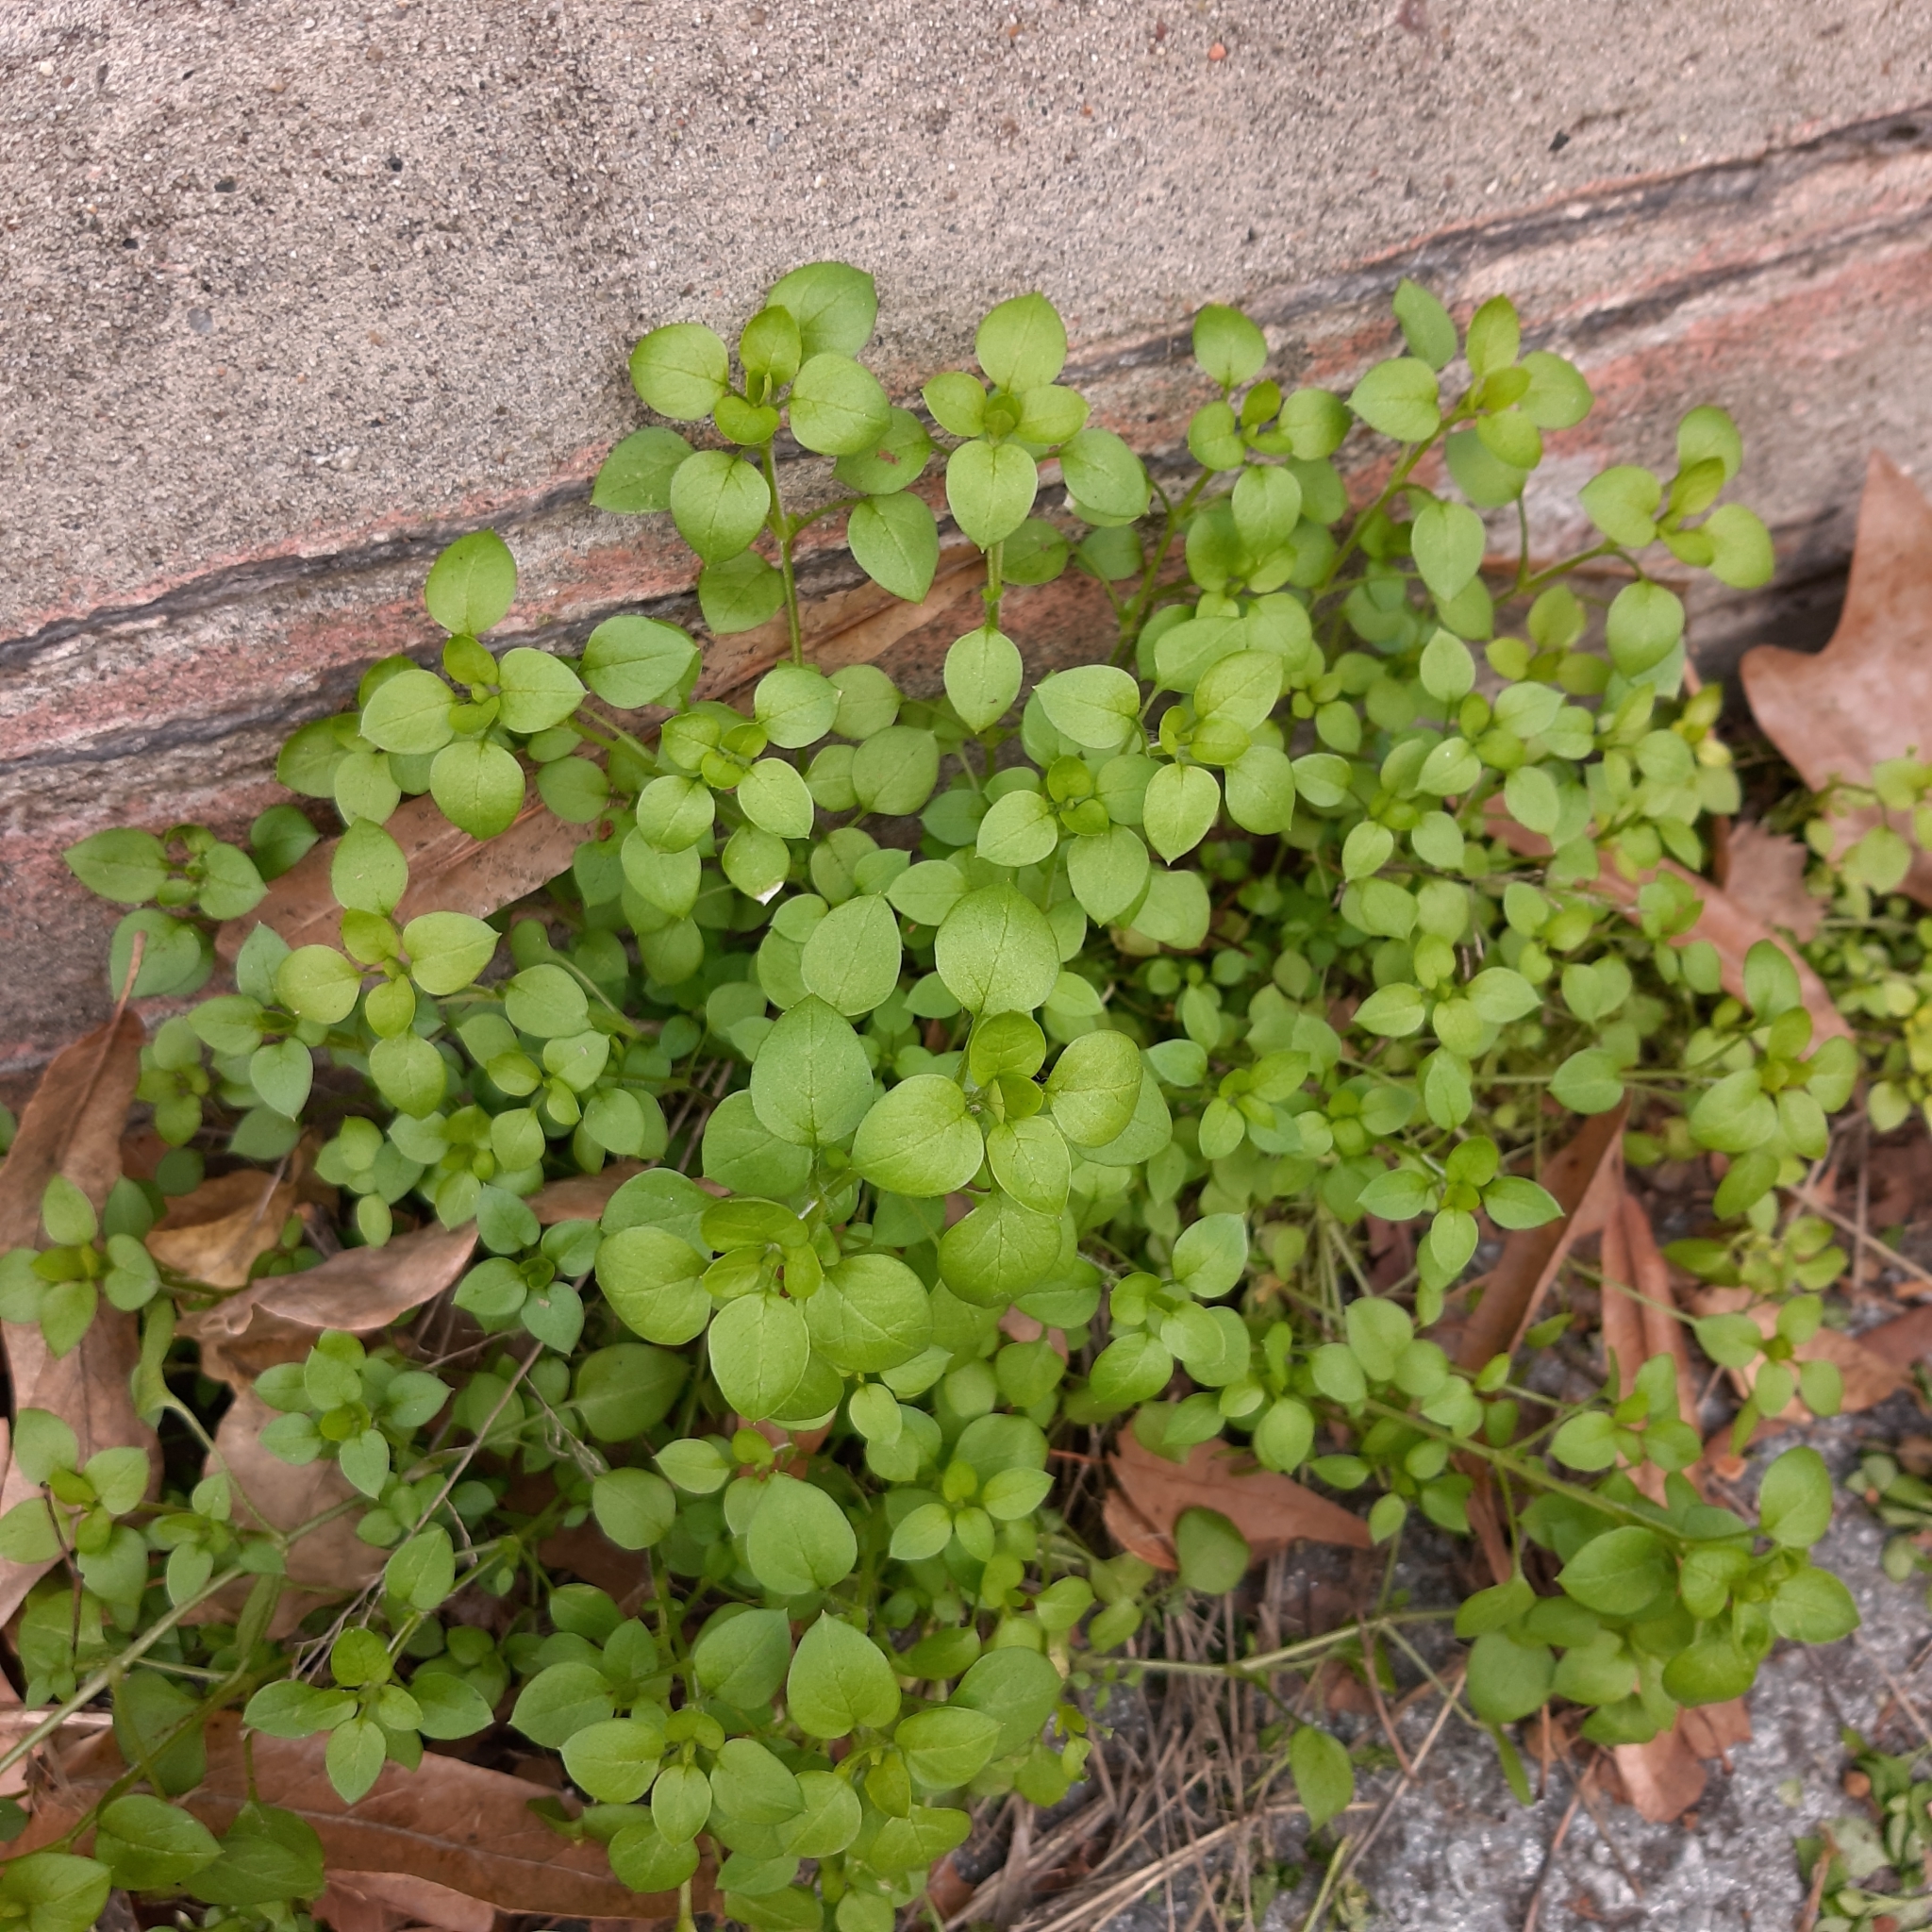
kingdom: Plantae
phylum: Tracheophyta
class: Magnoliopsida
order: Caryophyllales
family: Caryophyllaceae
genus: Stellaria
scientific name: Stellaria media
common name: Common chickweed
